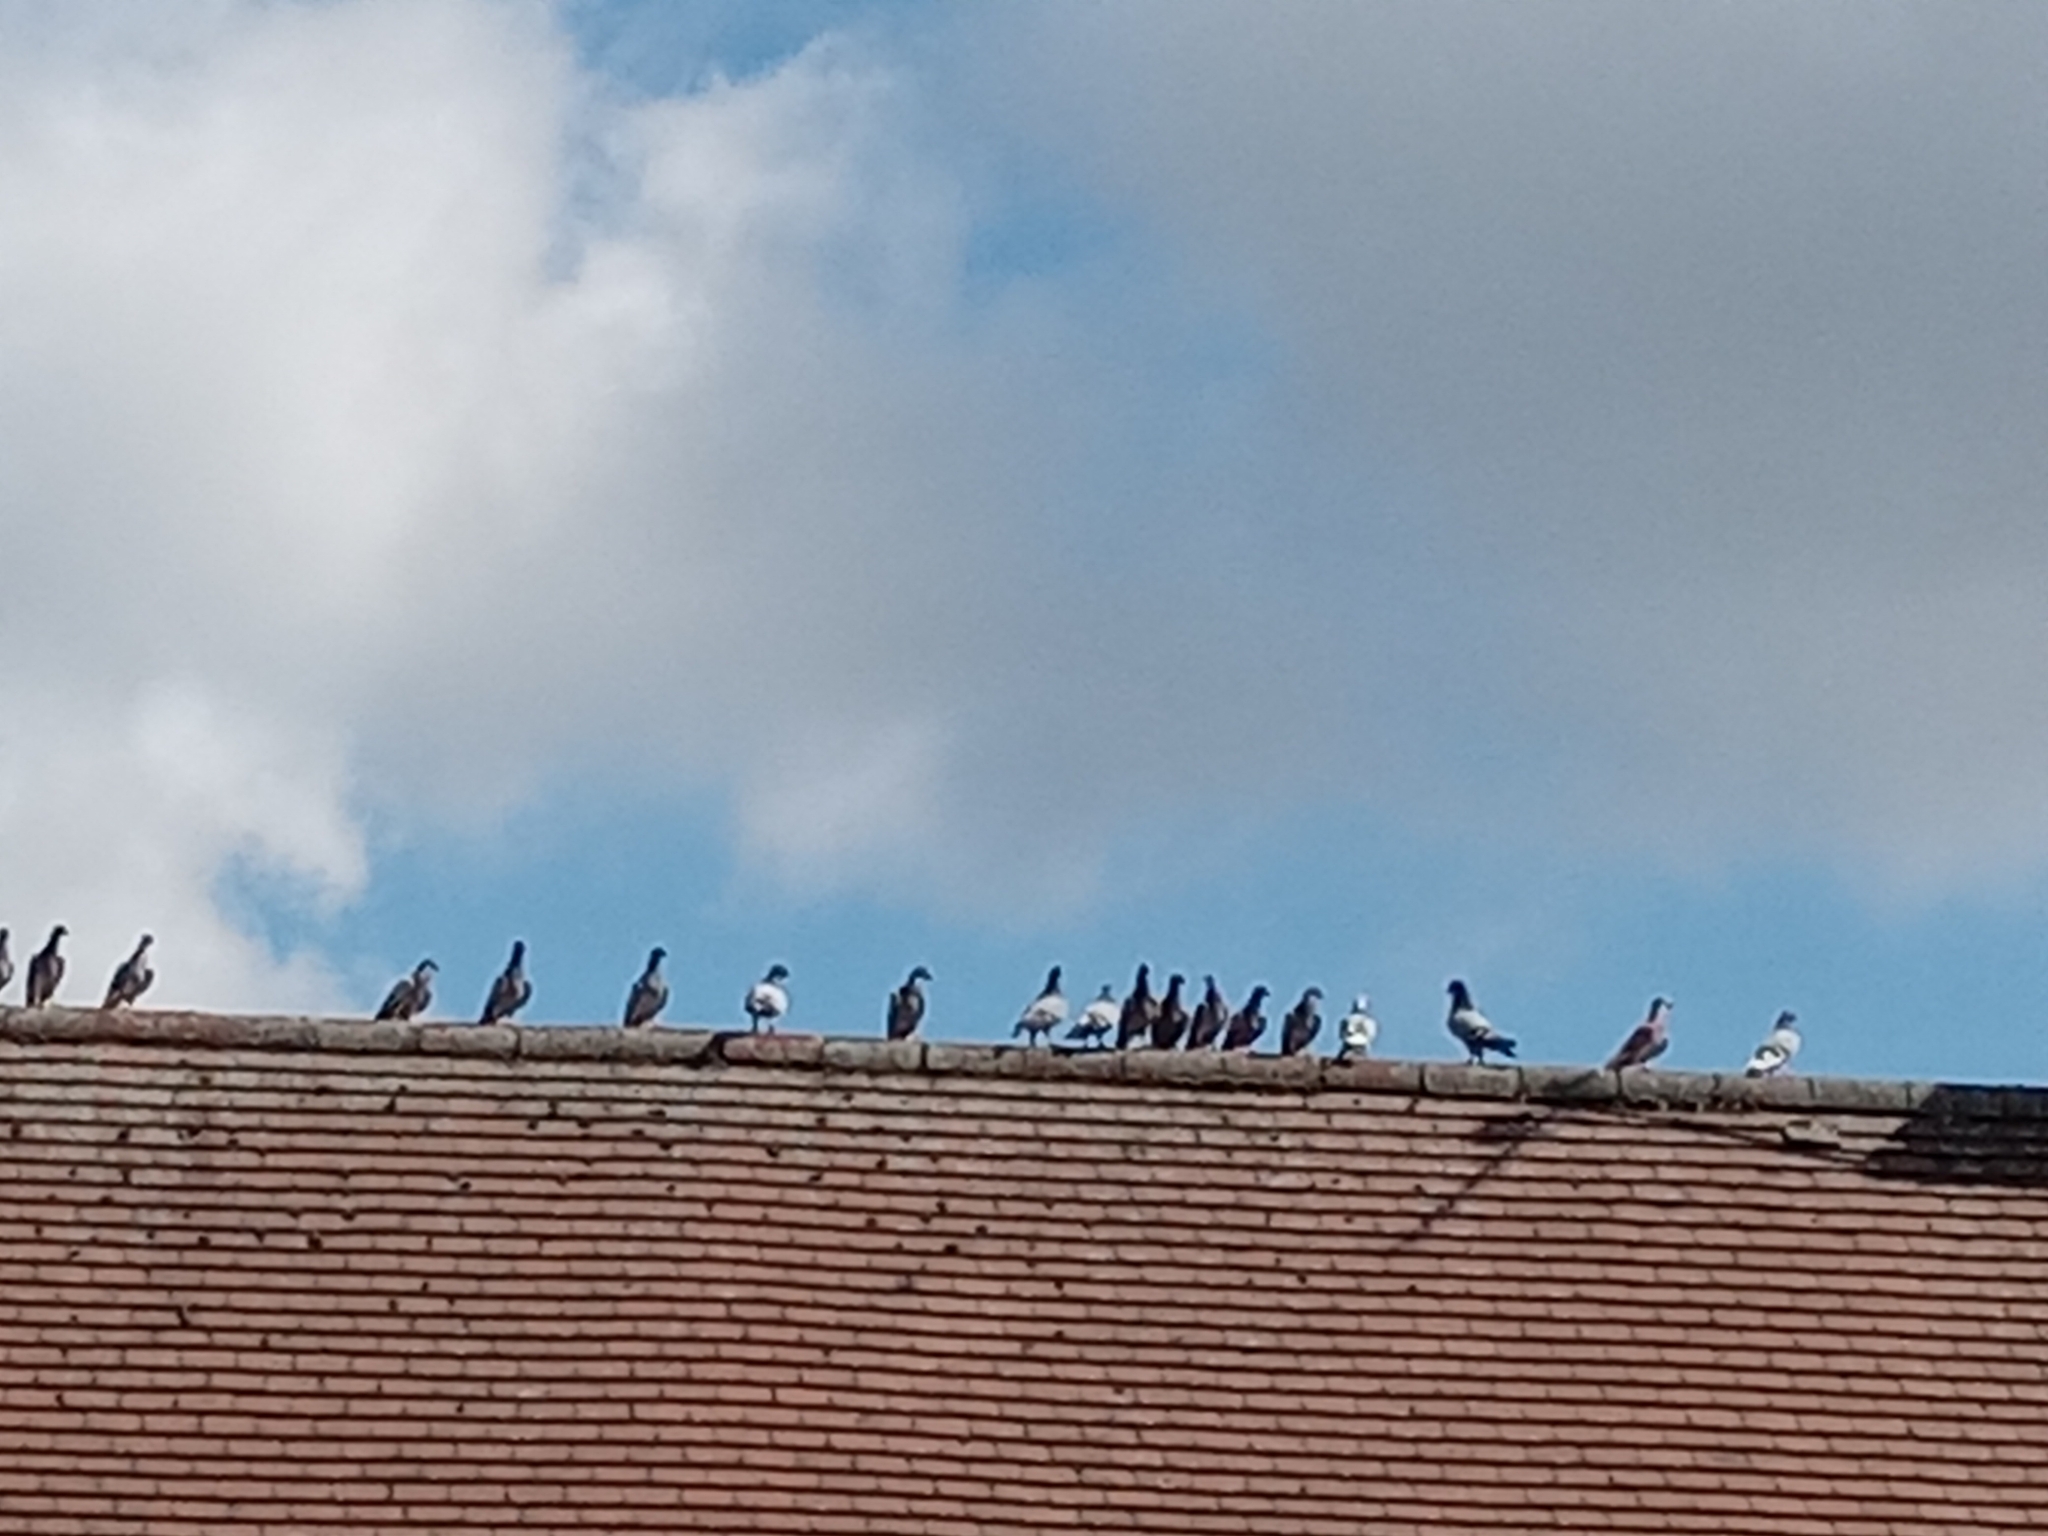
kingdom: Animalia
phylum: Chordata
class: Aves
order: Columbiformes
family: Columbidae
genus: Columba
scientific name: Columba livia
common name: Rock pigeon
